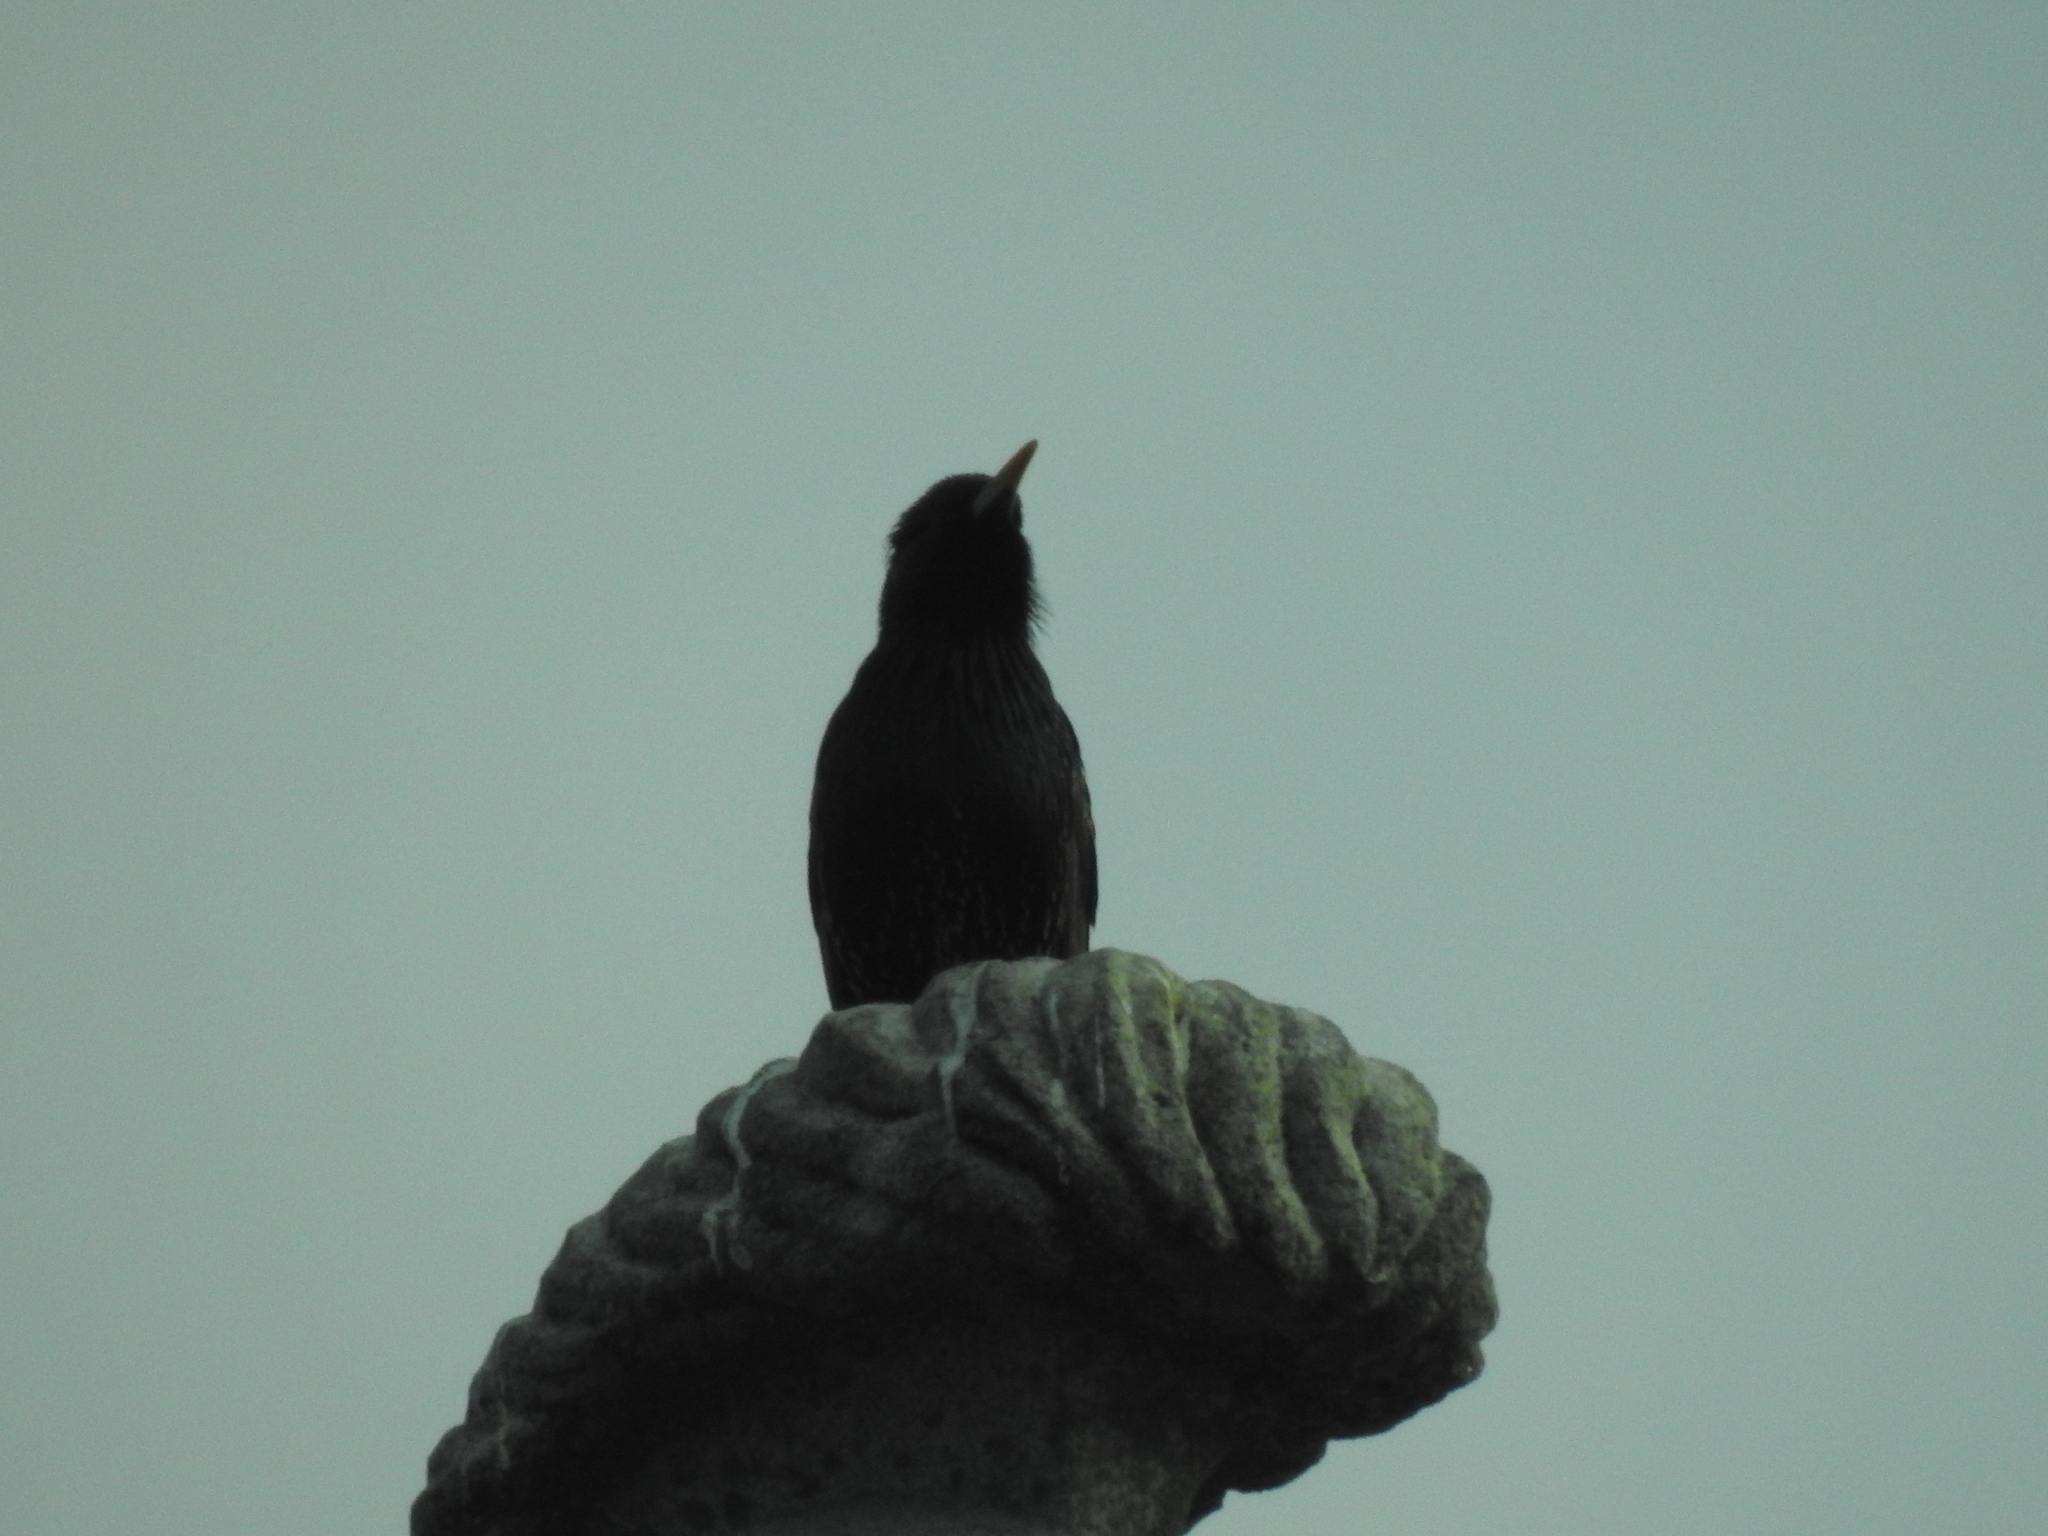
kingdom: Animalia
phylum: Chordata
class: Aves
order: Passeriformes
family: Sturnidae
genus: Sturnus
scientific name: Sturnus vulgaris
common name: Common starling
